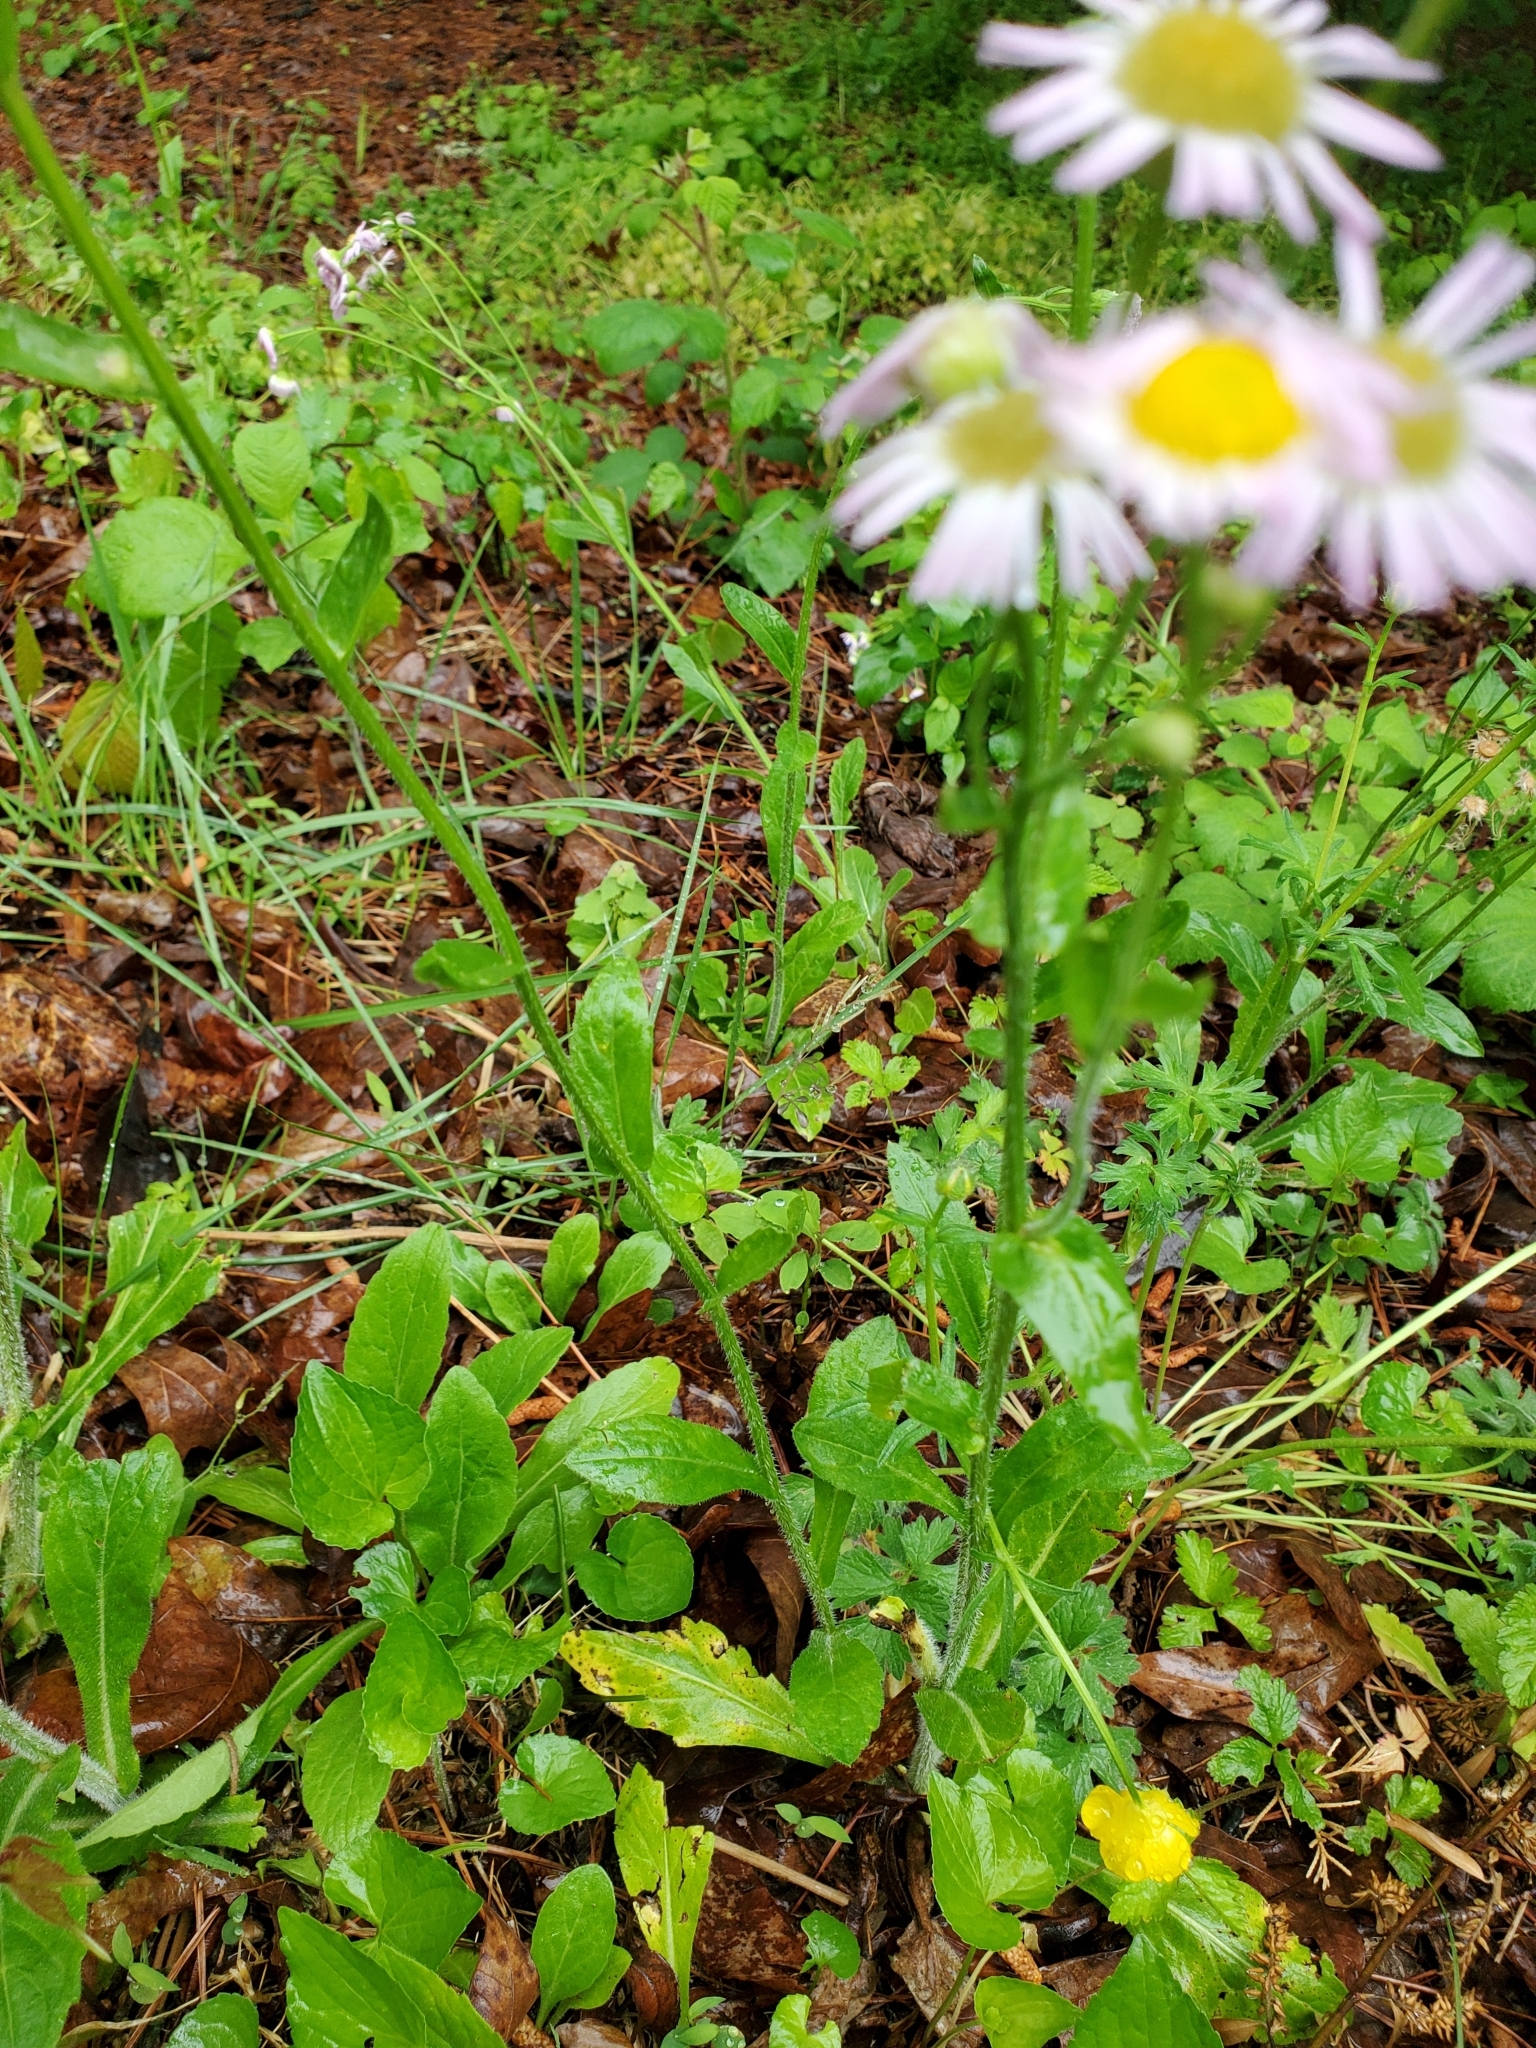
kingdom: Plantae
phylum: Tracheophyta
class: Magnoliopsida
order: Asterales
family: Asteraceae
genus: Erigeron
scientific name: Erigeron philadelphicus
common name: Robin's-plantain
